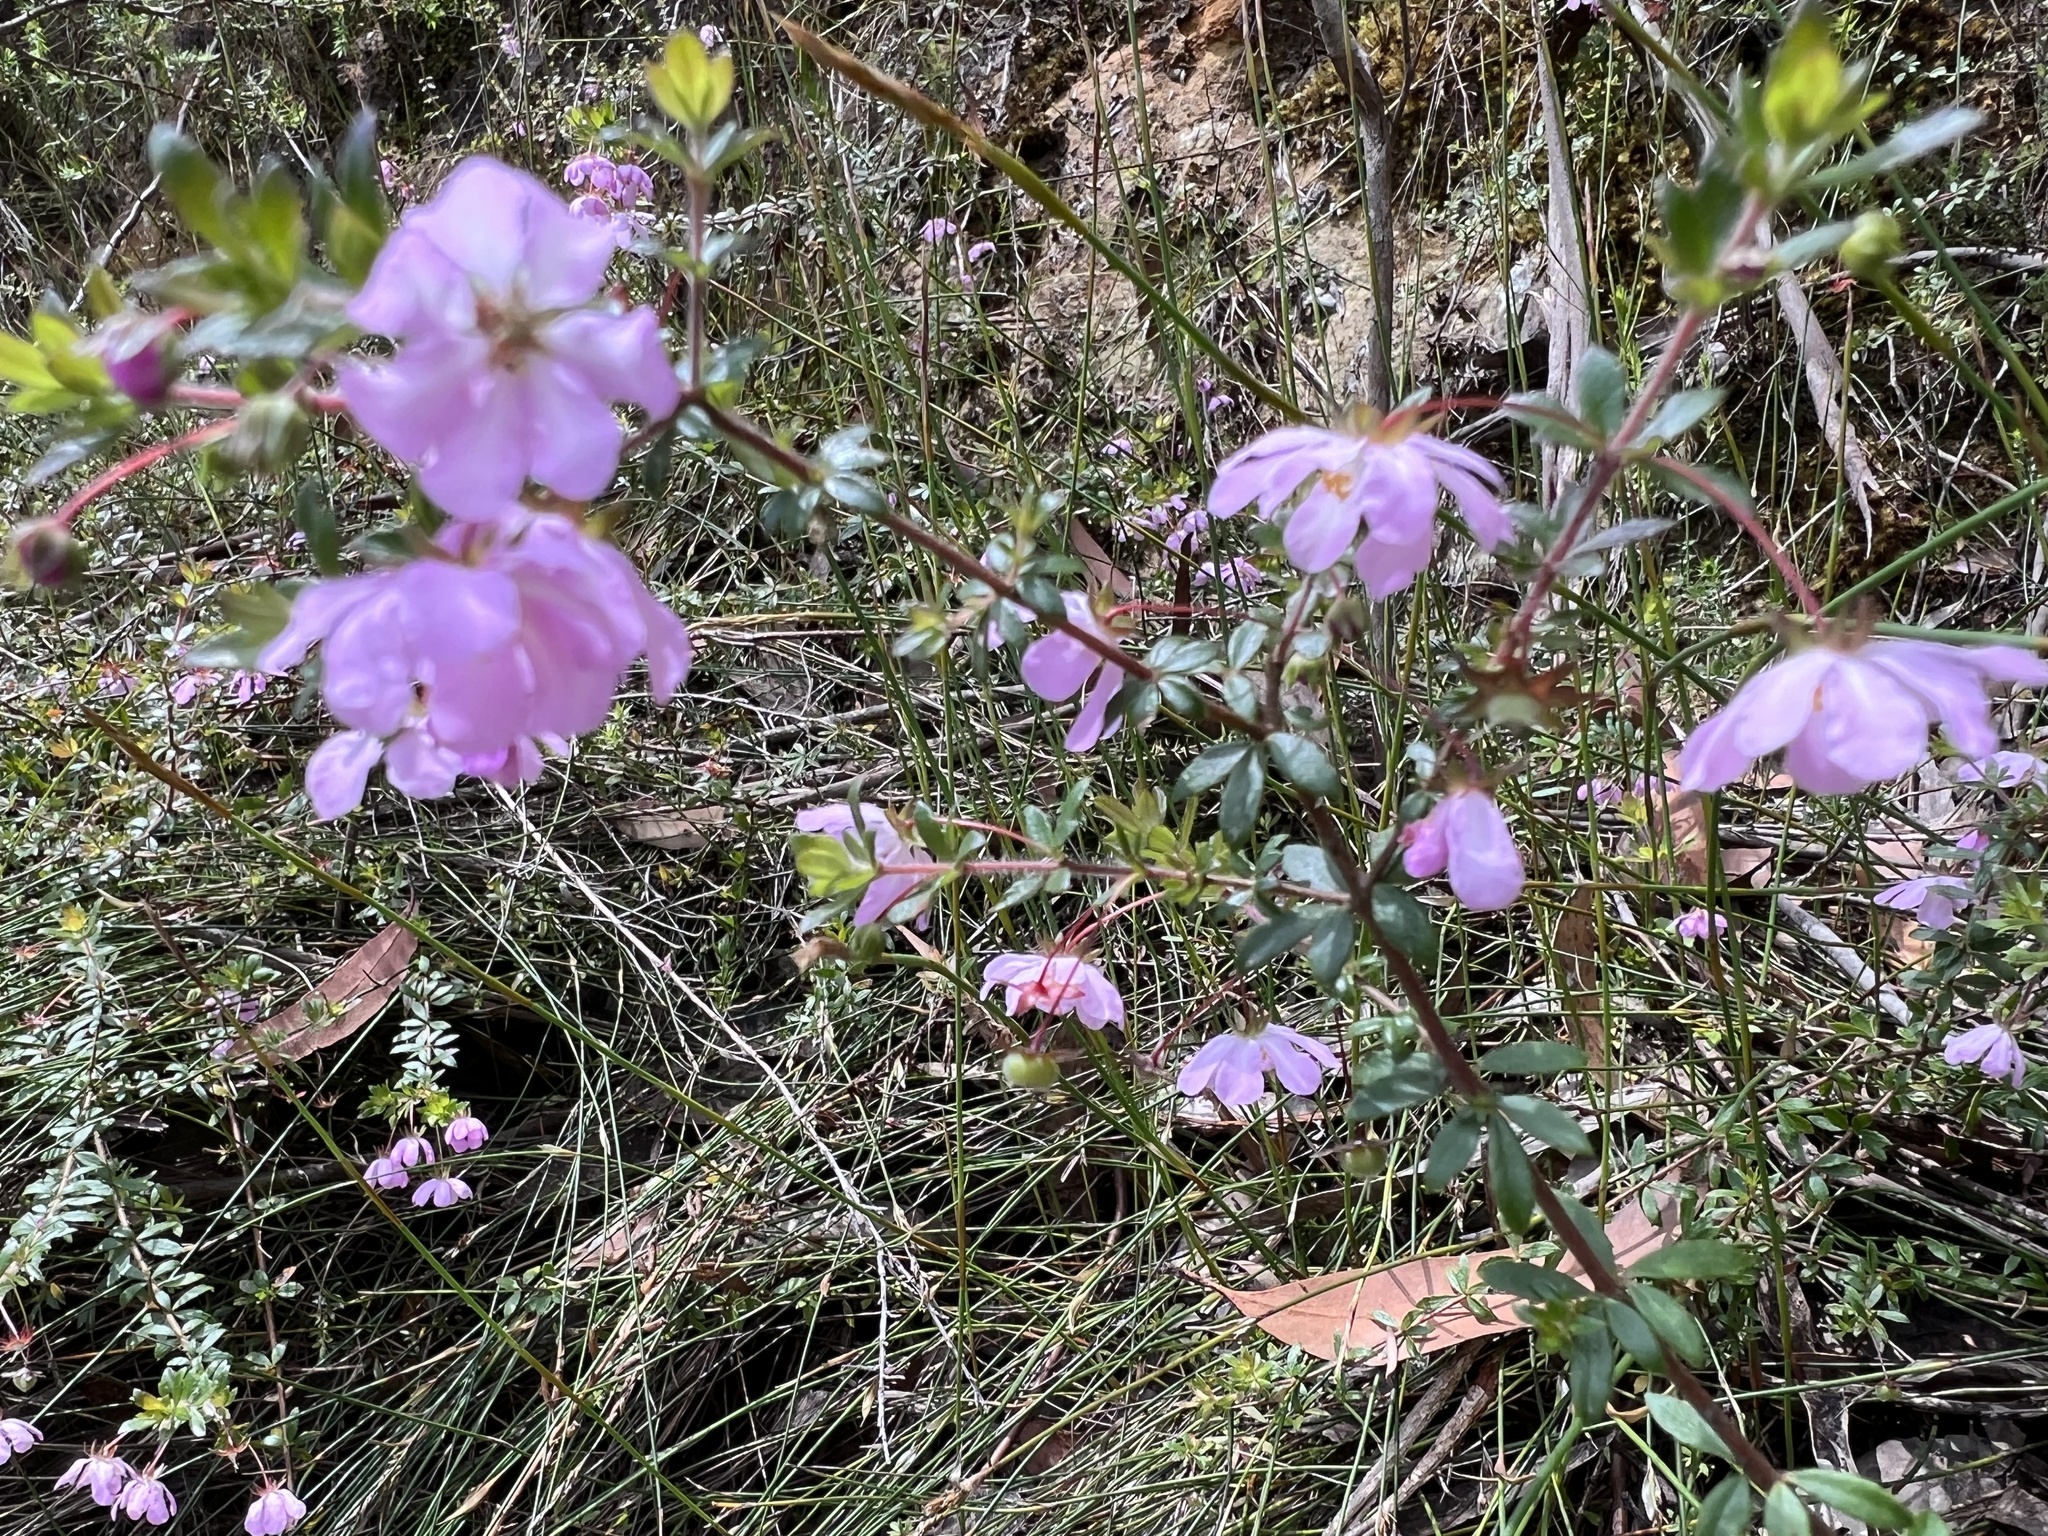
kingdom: Plantae
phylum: Tracheophyta
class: Magnoliopsida
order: Oxalidales
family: Cunoniaceae
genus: Bauera
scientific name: Bauera rubioides
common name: River-rose
